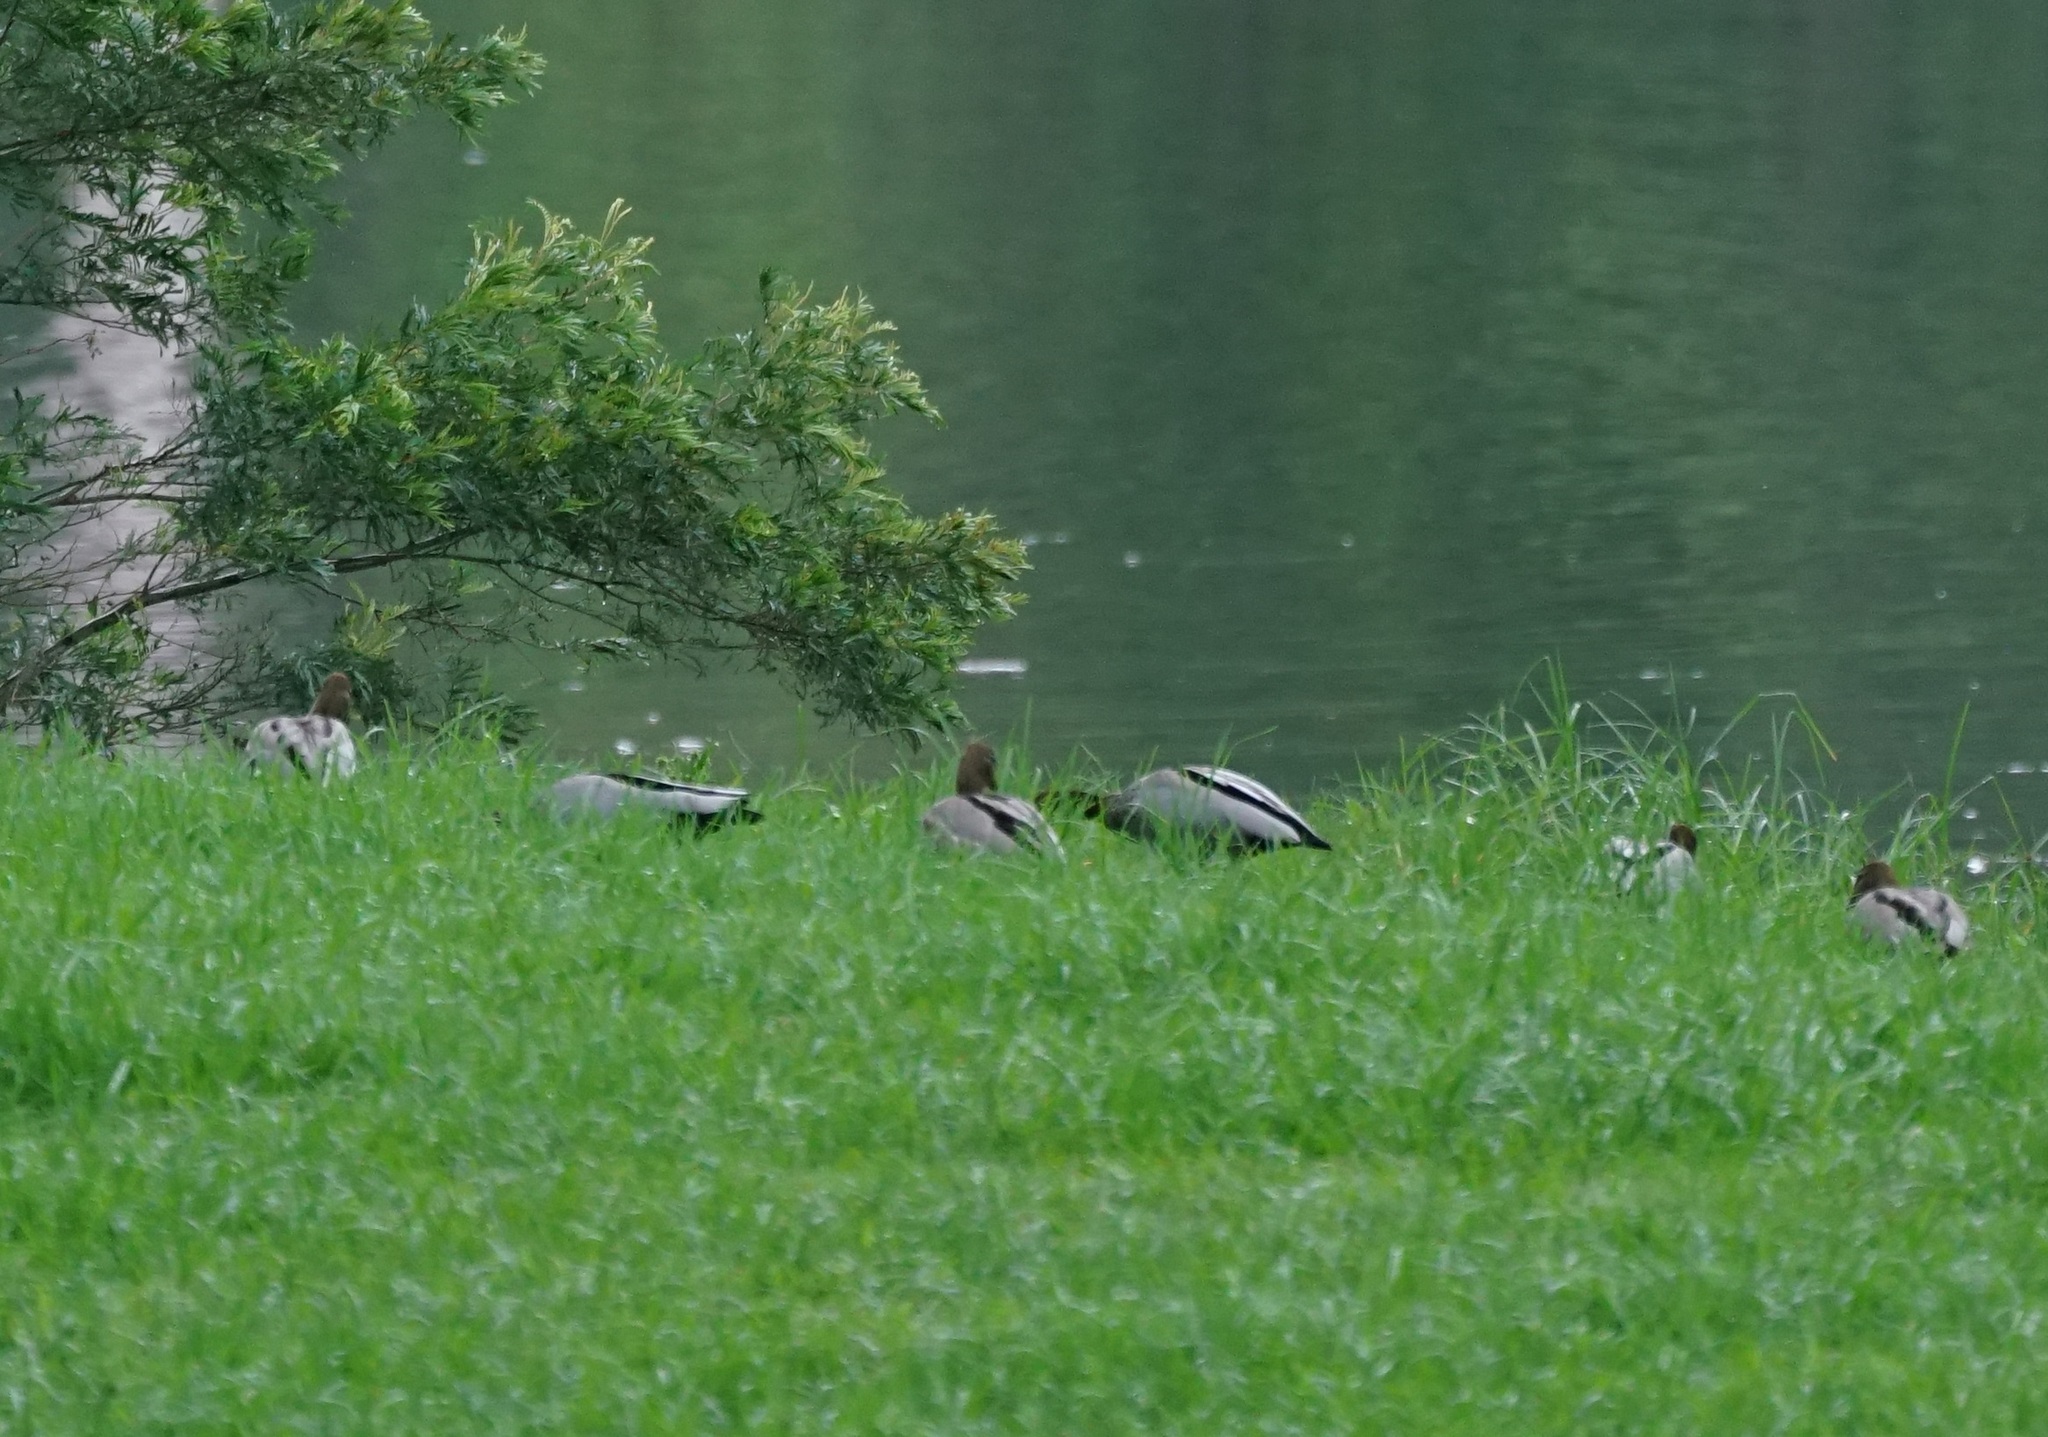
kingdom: Animalia
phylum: Chordata
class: Aves
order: Anseriformes
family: Anatidae
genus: Chenonetta
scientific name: Chenonetta jubata
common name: Maned duck
